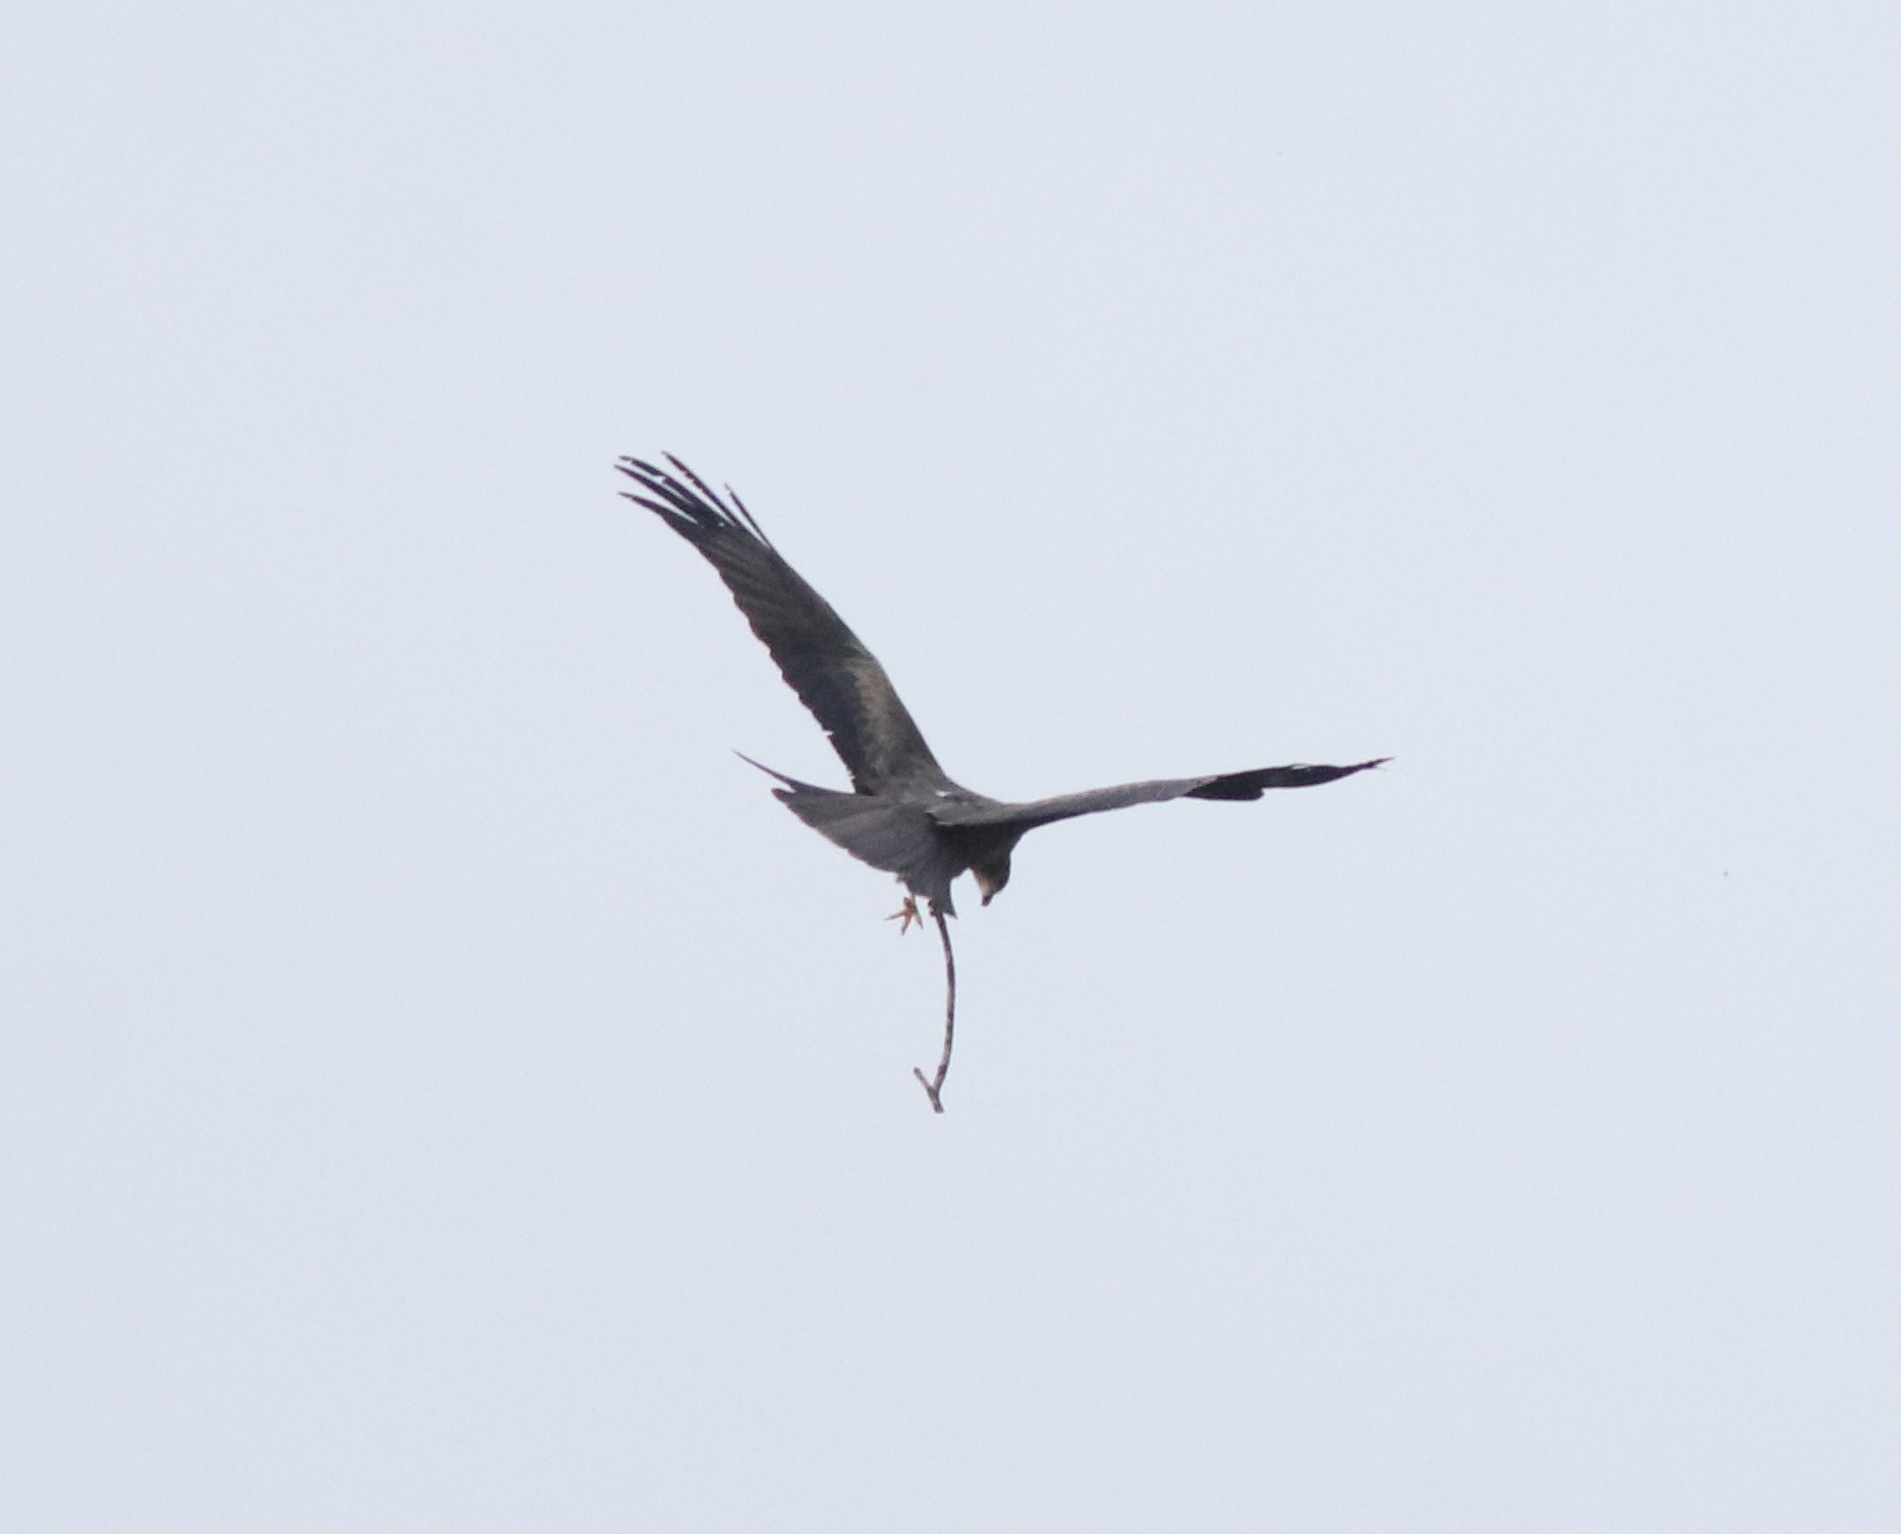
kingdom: Animalia
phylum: Chordata
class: Aves
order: Accipitriformes
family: Accipitridae
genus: Milvus
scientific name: Milvus migrans
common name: Black kite
